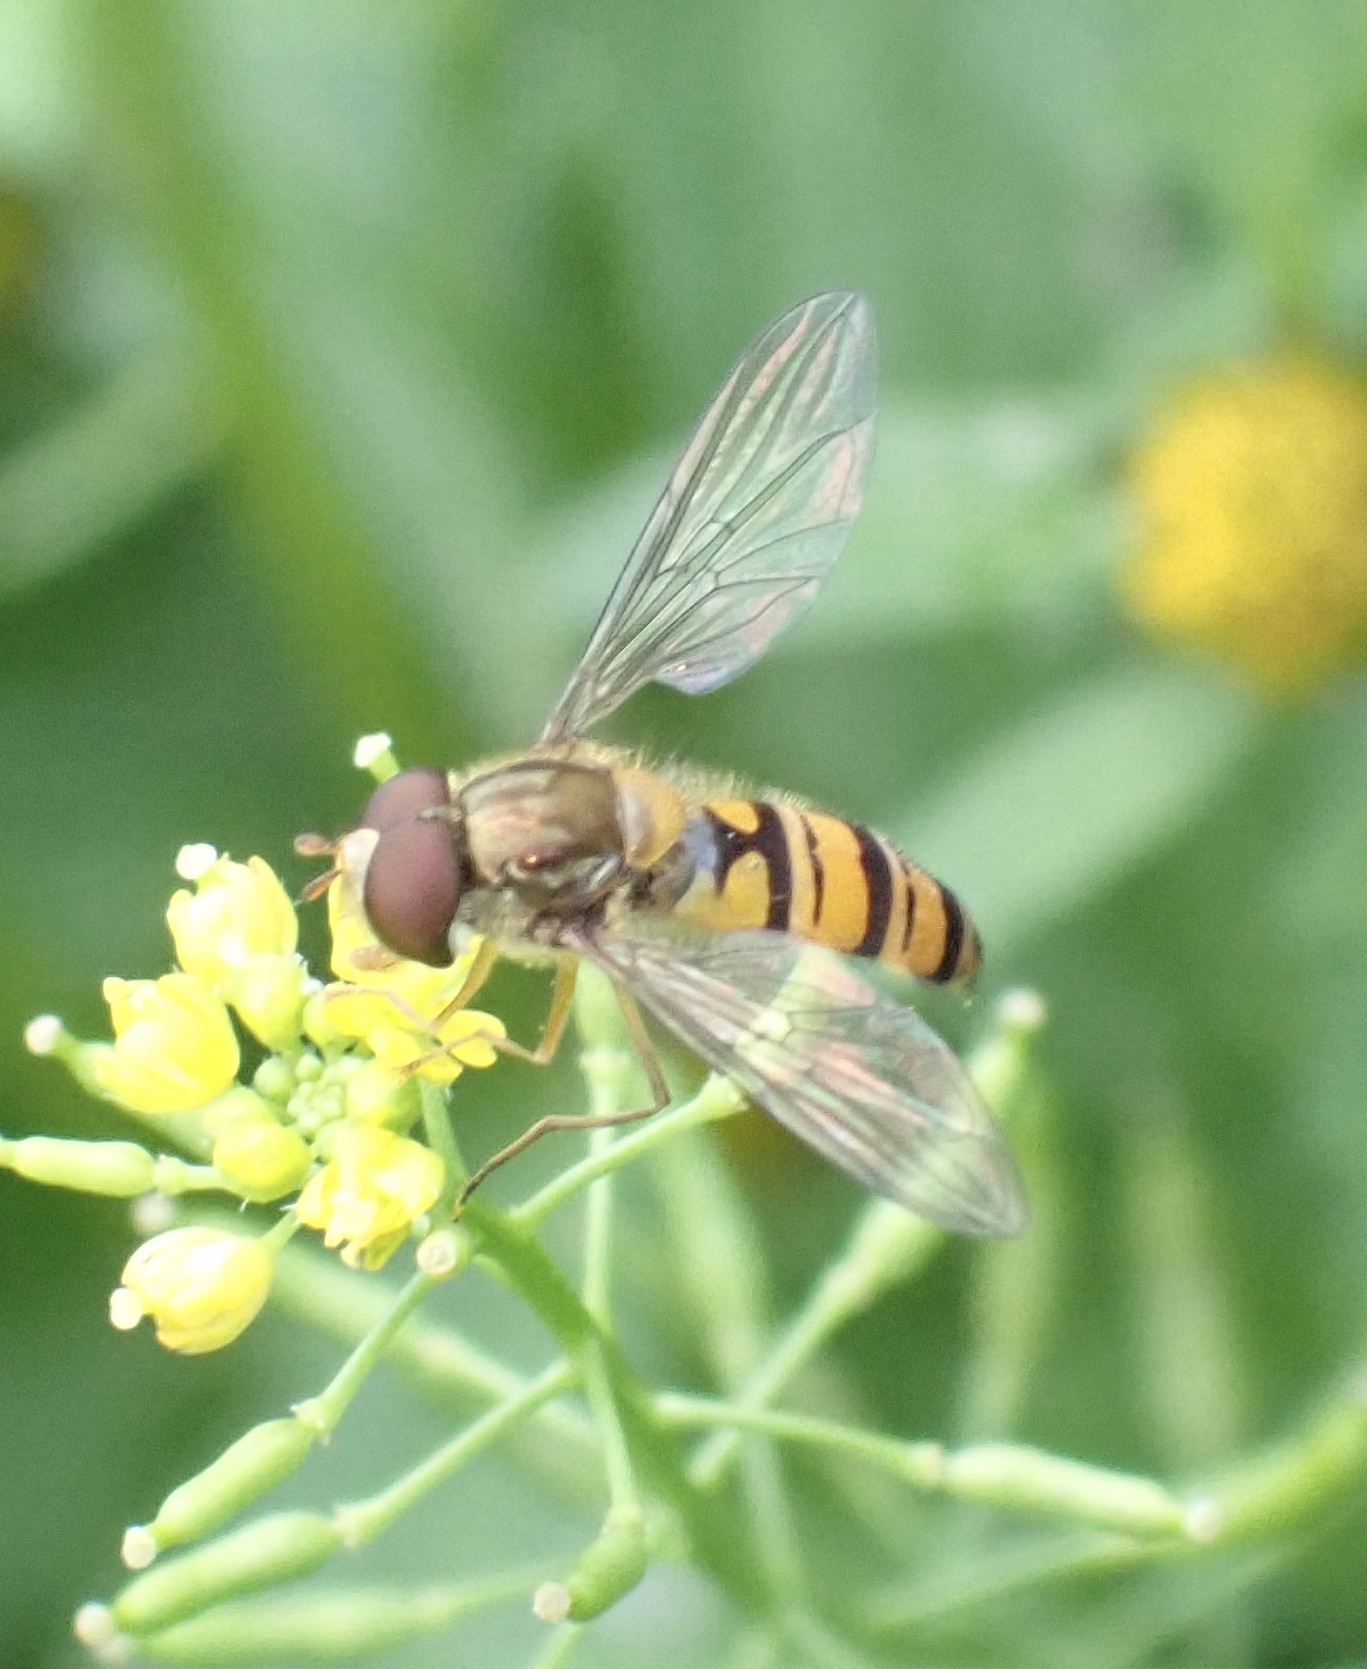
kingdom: Animalia
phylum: Arthropoda
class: Insecta
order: Diptera
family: Syrphidae
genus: Episyrphus
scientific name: Episyrphus balteatus
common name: Marmalade hoverfly
